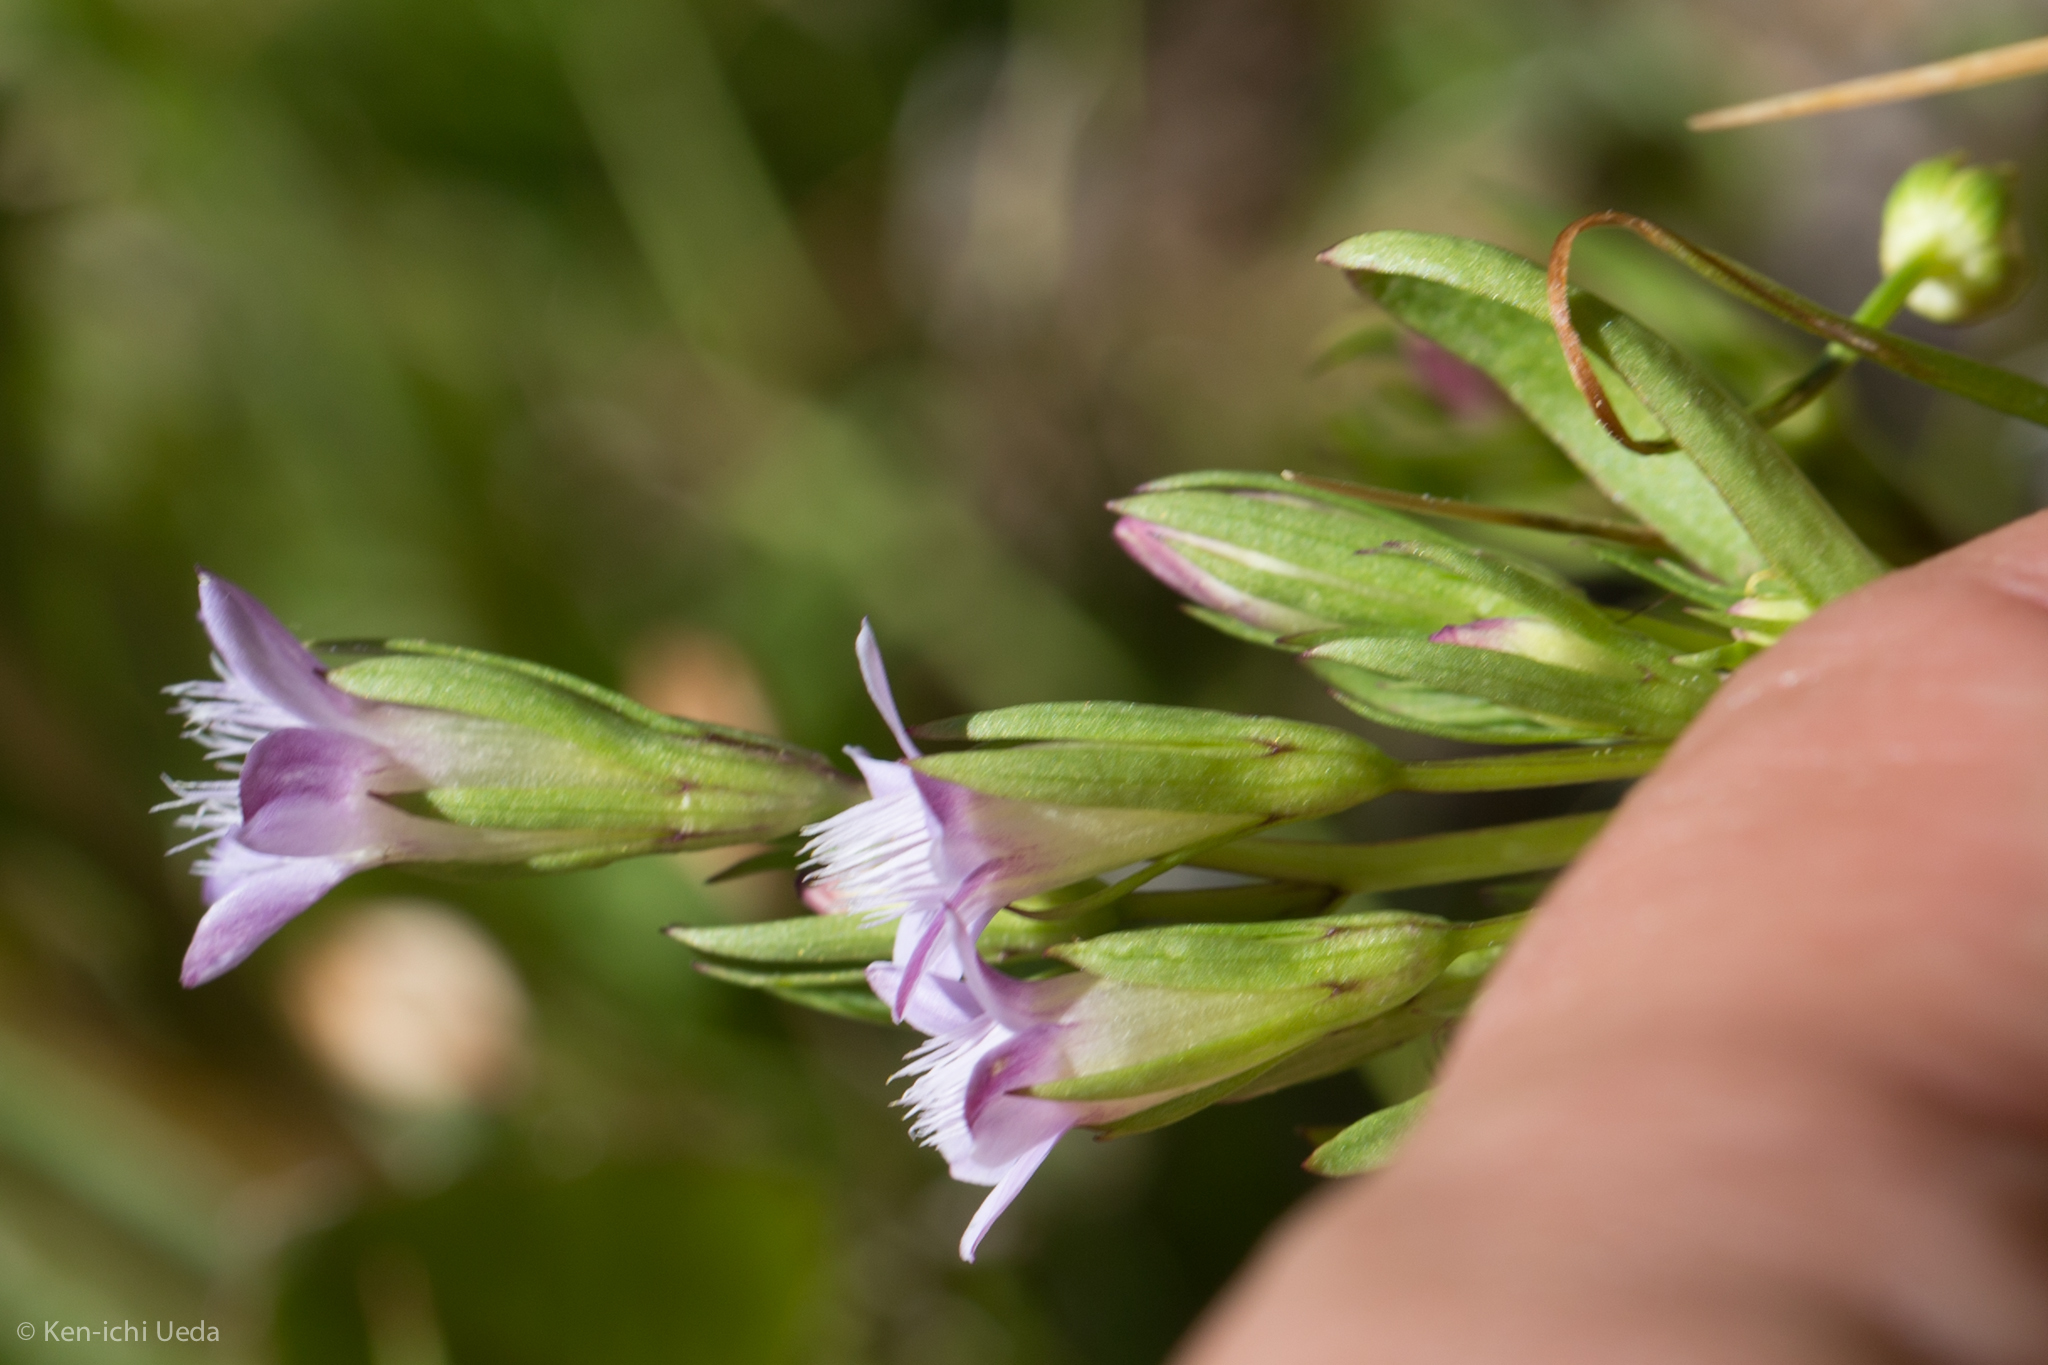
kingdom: Plantae
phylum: Tracheophyta
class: Magnoliopsida
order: Gentianales
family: Gentianaceae
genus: Gentianella
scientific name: Gentianella amarella
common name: Autumn gentian
